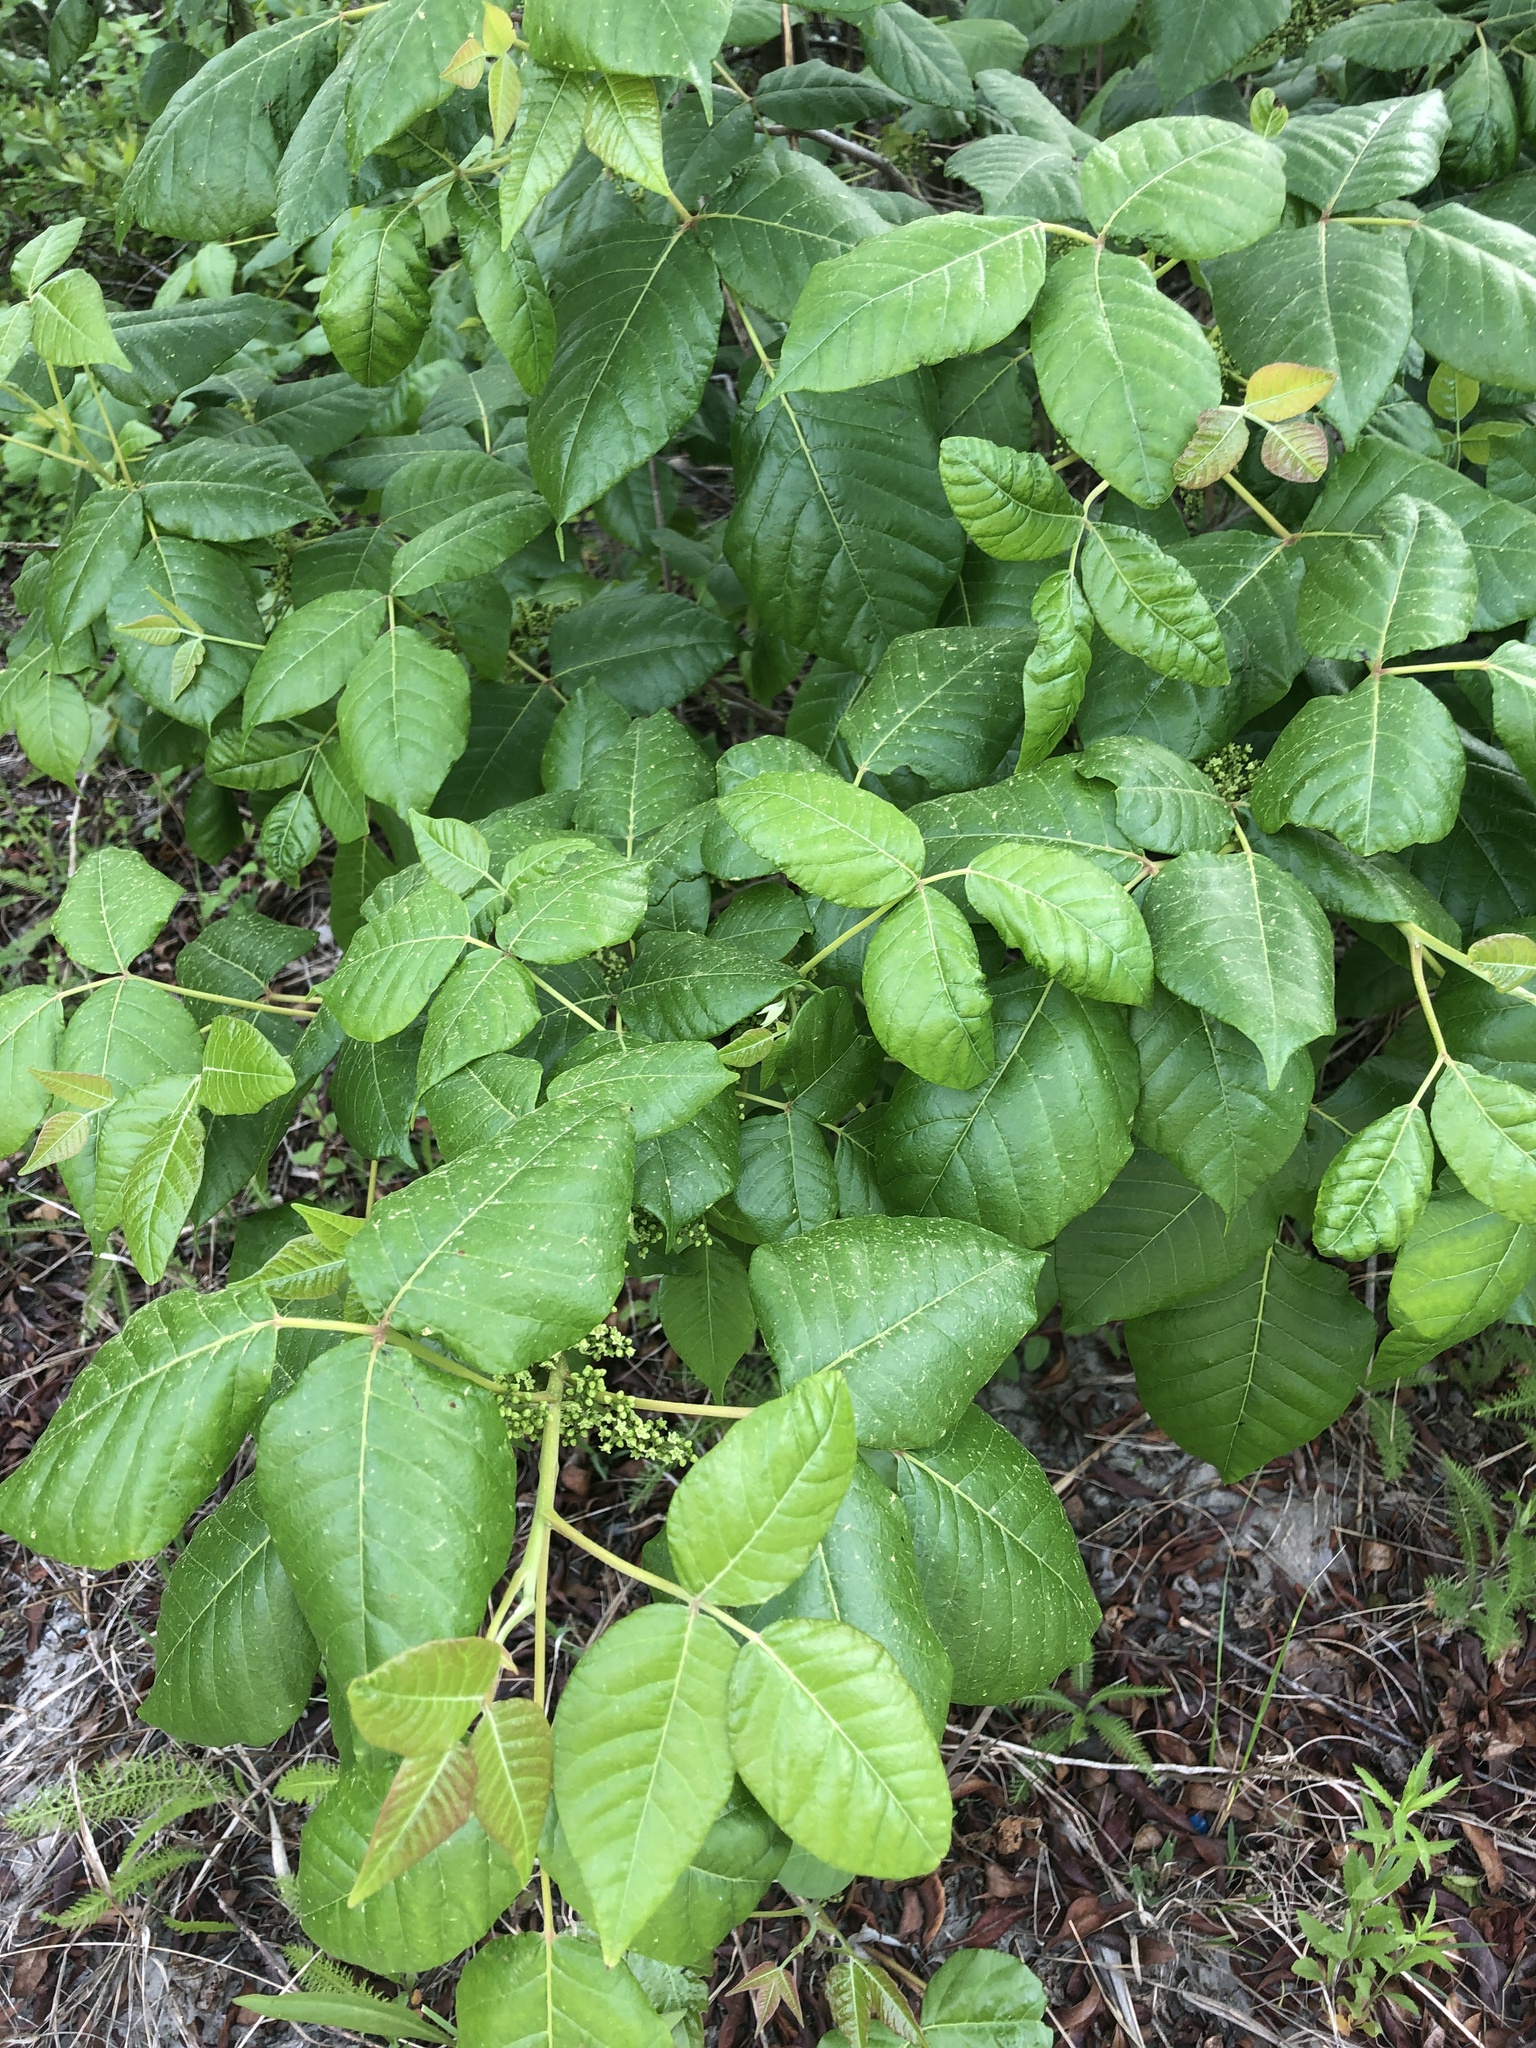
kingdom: Plantae
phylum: Tracheophyta
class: Magnoliopsida
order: Sapindales
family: Anacardiaceae
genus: Toxicodendron
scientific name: Toxicodendron radicans
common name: Poison ivy
